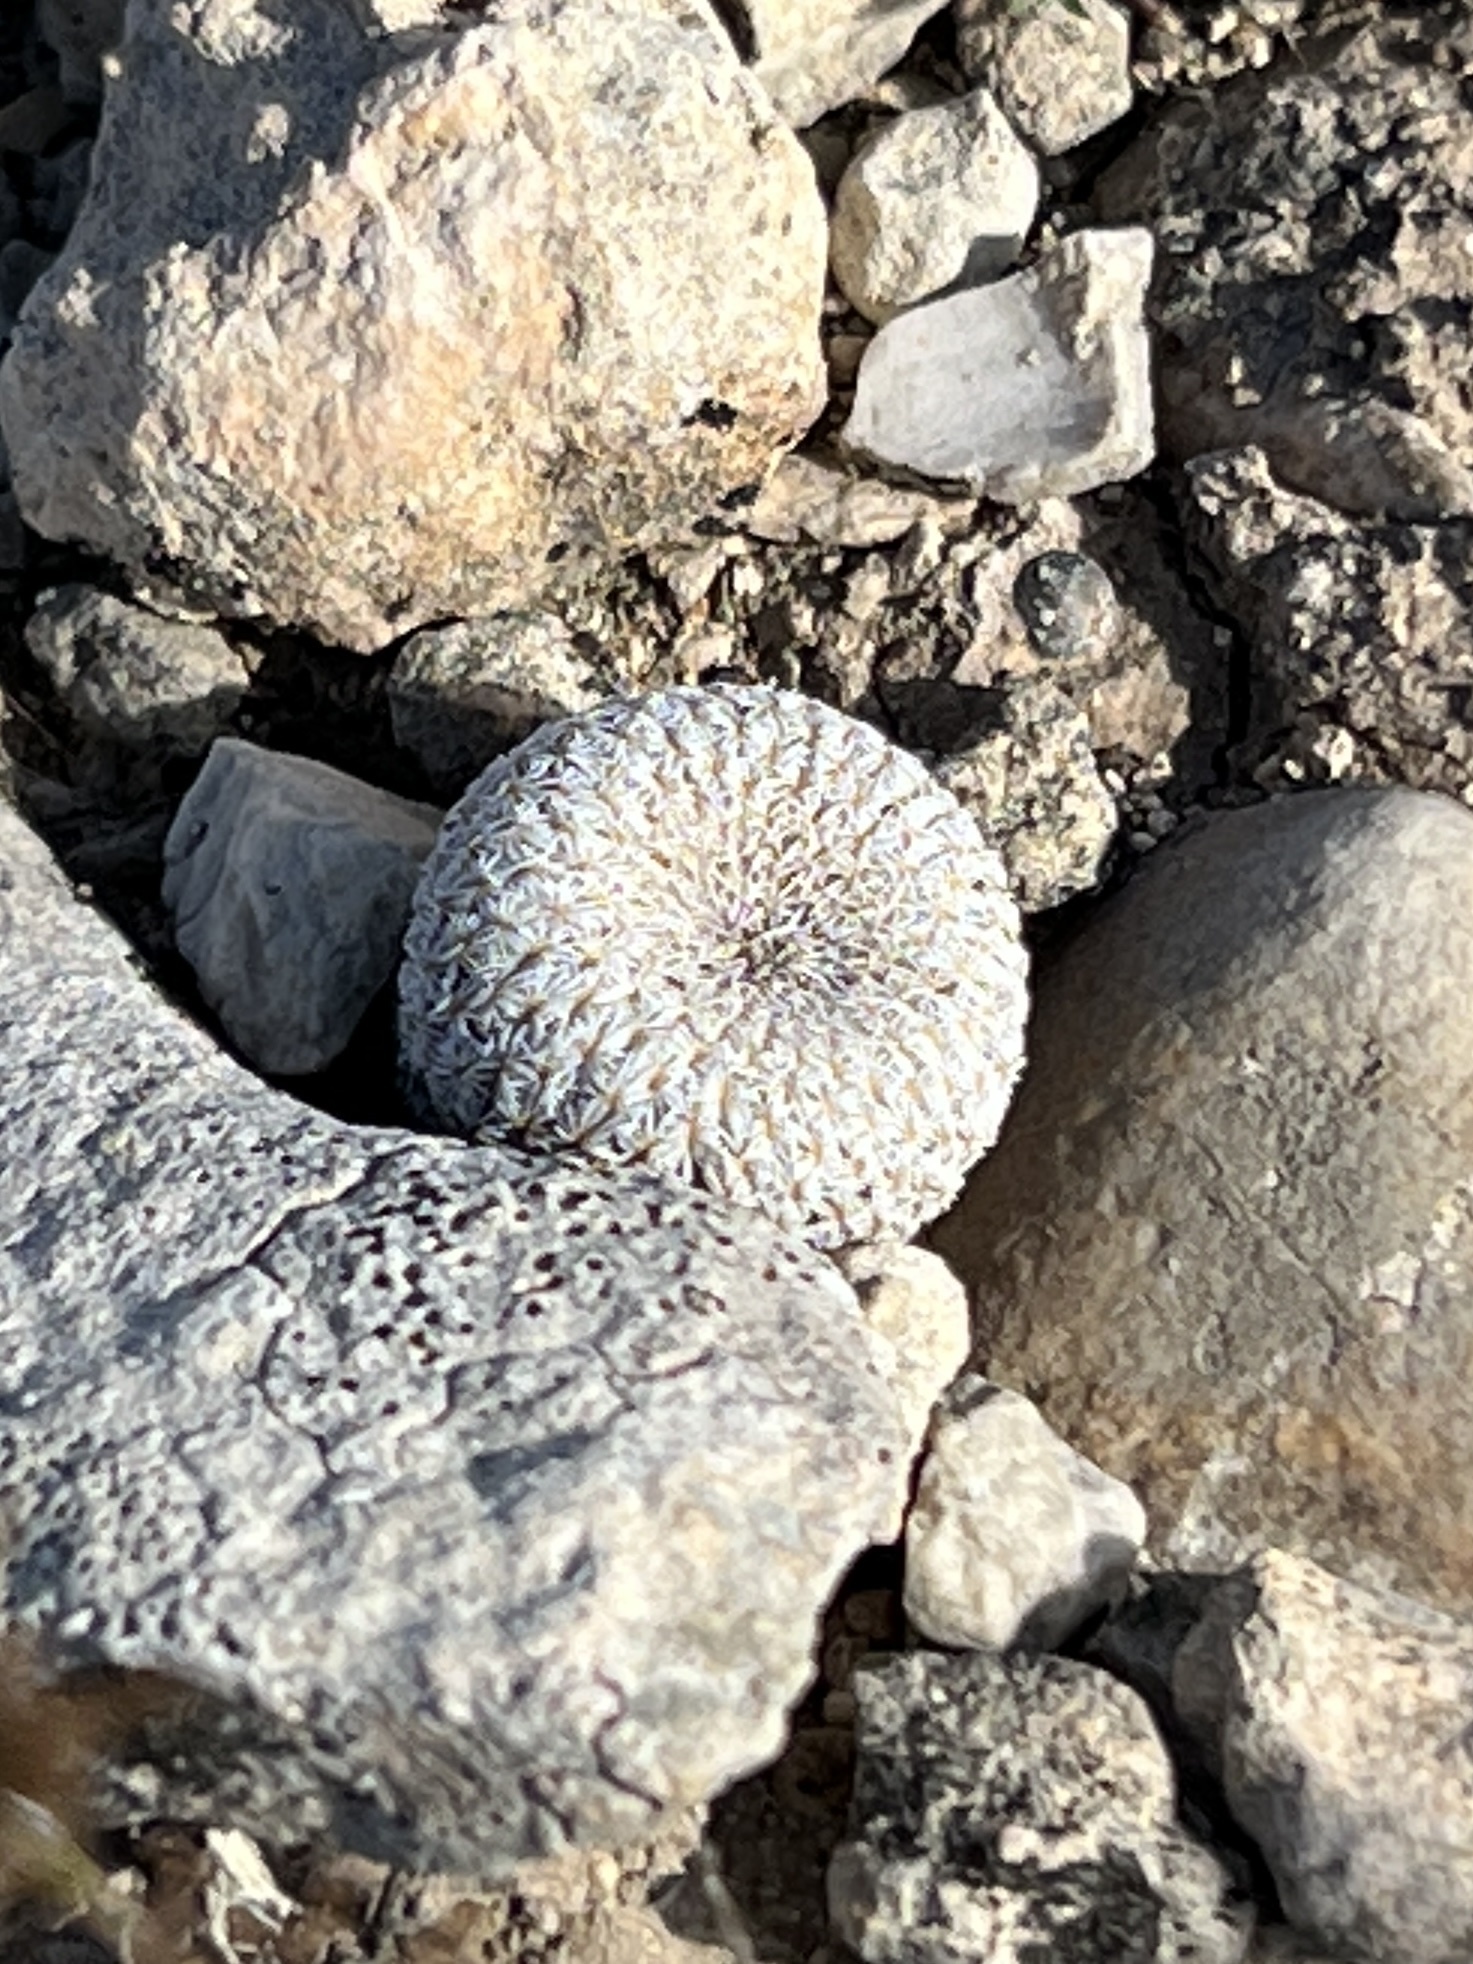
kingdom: Plantae
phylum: Tracheophyta
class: Magnoliopsida
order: Caryophyllales
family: Cactaceae
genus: Epithelantha
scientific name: Epithelantha micromeris
